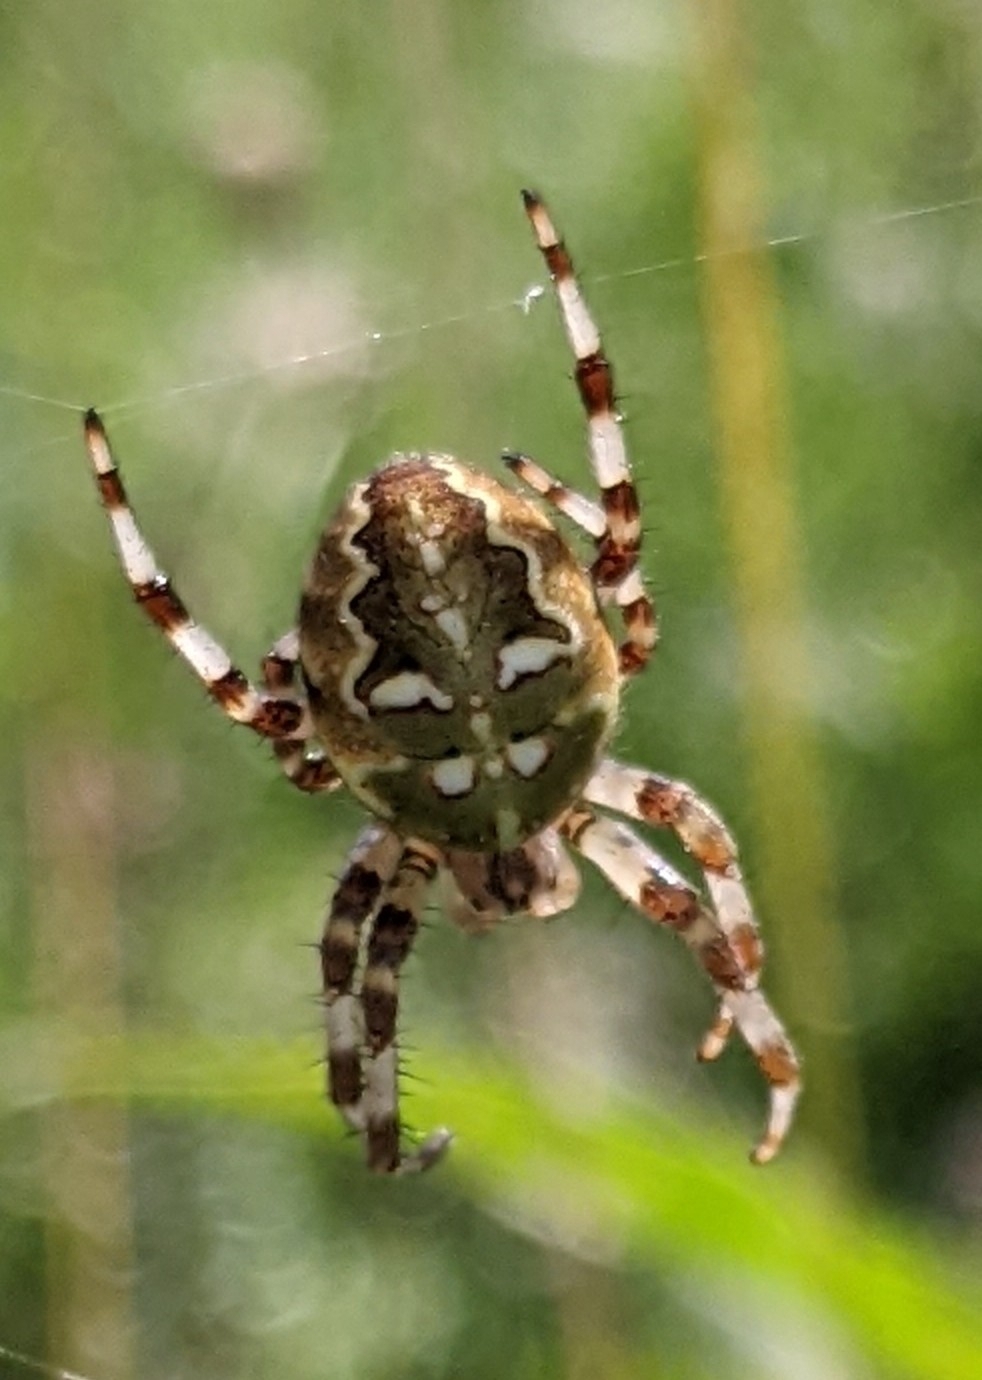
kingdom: Animalia
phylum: Arthropoda
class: Arachnida
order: Araneae
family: Araneidae
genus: Araneus
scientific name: Araneus quadratus
